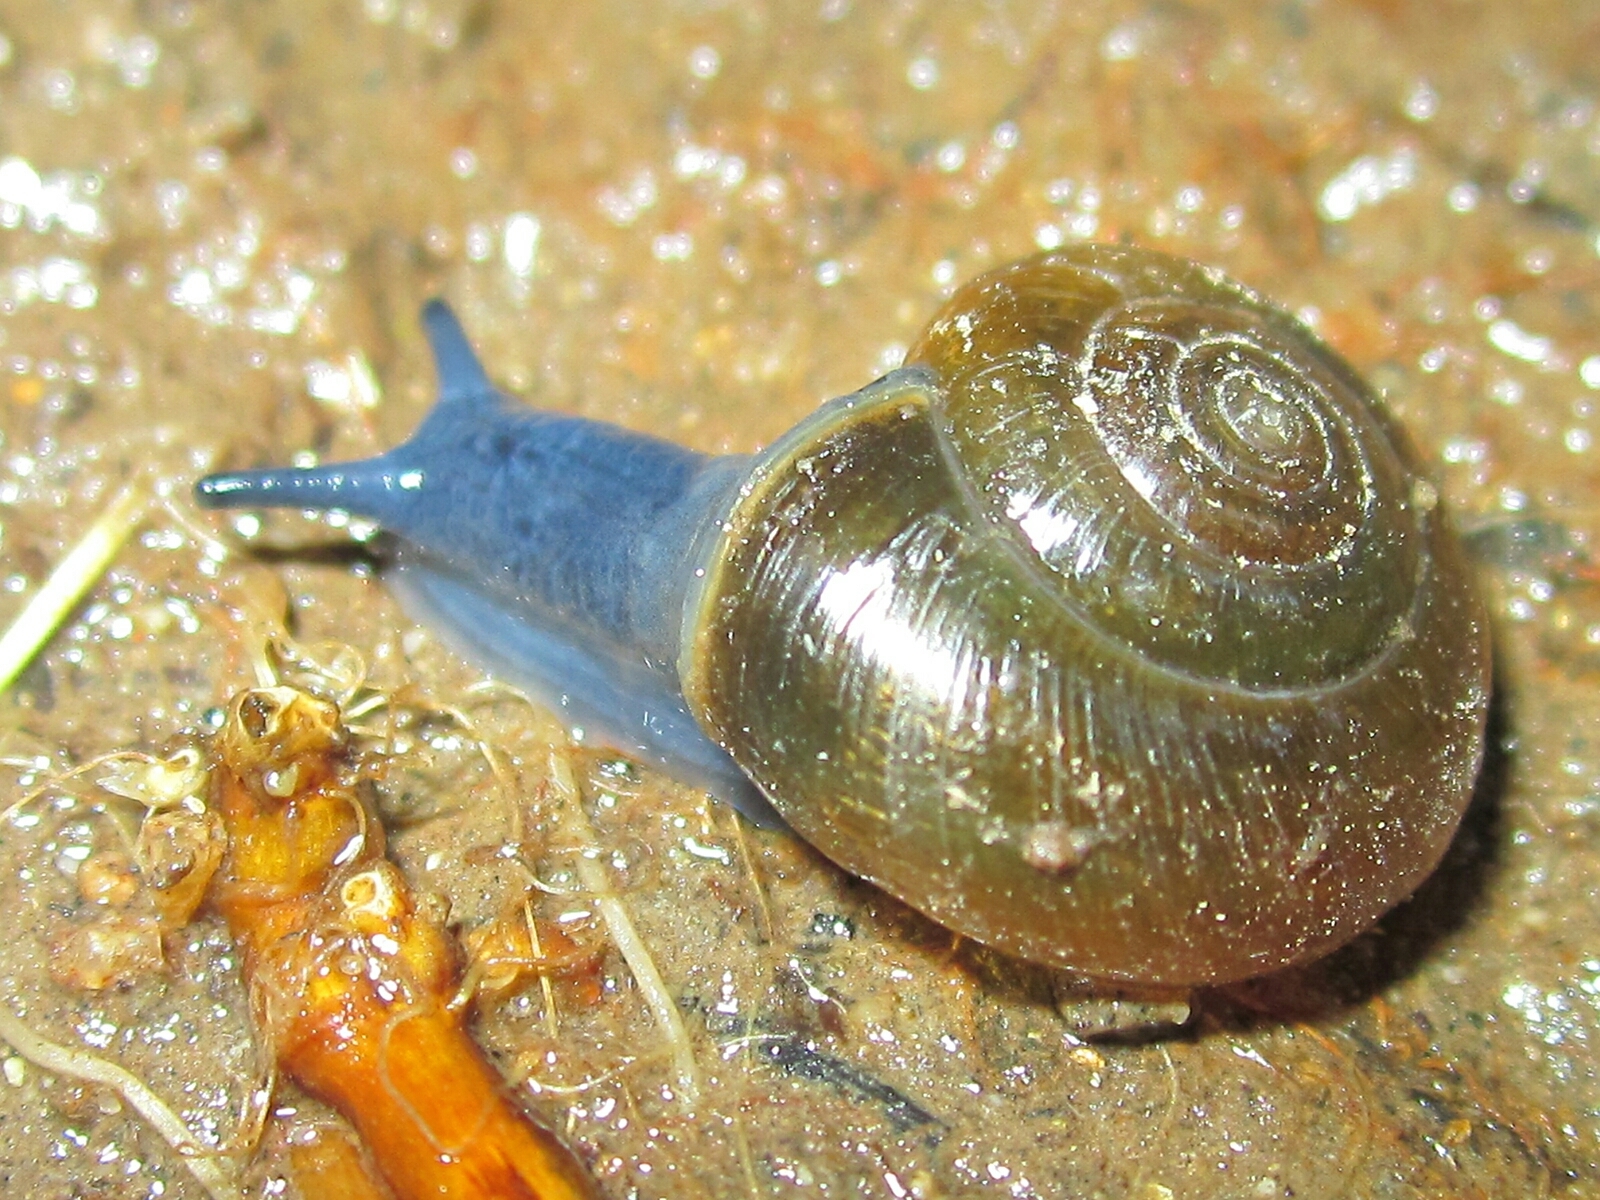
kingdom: Animalia
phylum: Mollusca
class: Gastropoda
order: Stylommatophora
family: Oxychilidae
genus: Oxychilus
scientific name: Oxychilus alliarius
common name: Garlic glass-snail
